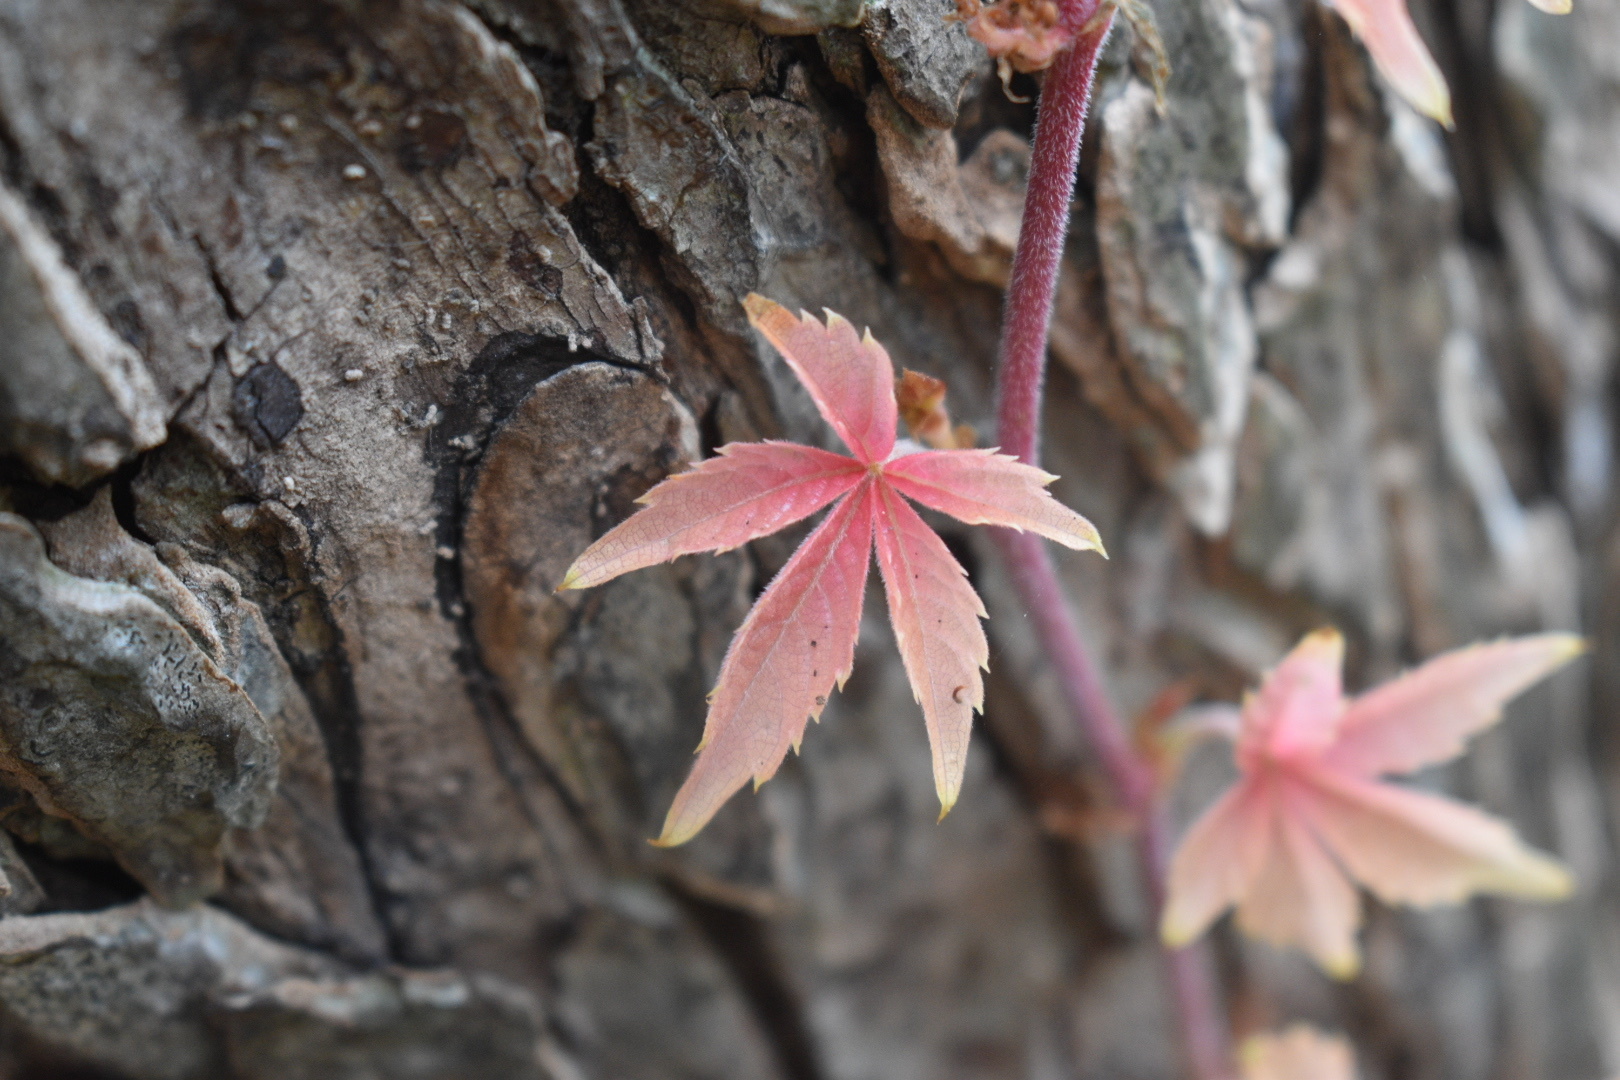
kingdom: Plantae
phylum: Tracheophyta
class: Magnoliopsida
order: Vitales
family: Vitaceae
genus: Parthenocissus
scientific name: Parthenocissus quinquefolia
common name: Virginia-creeper
